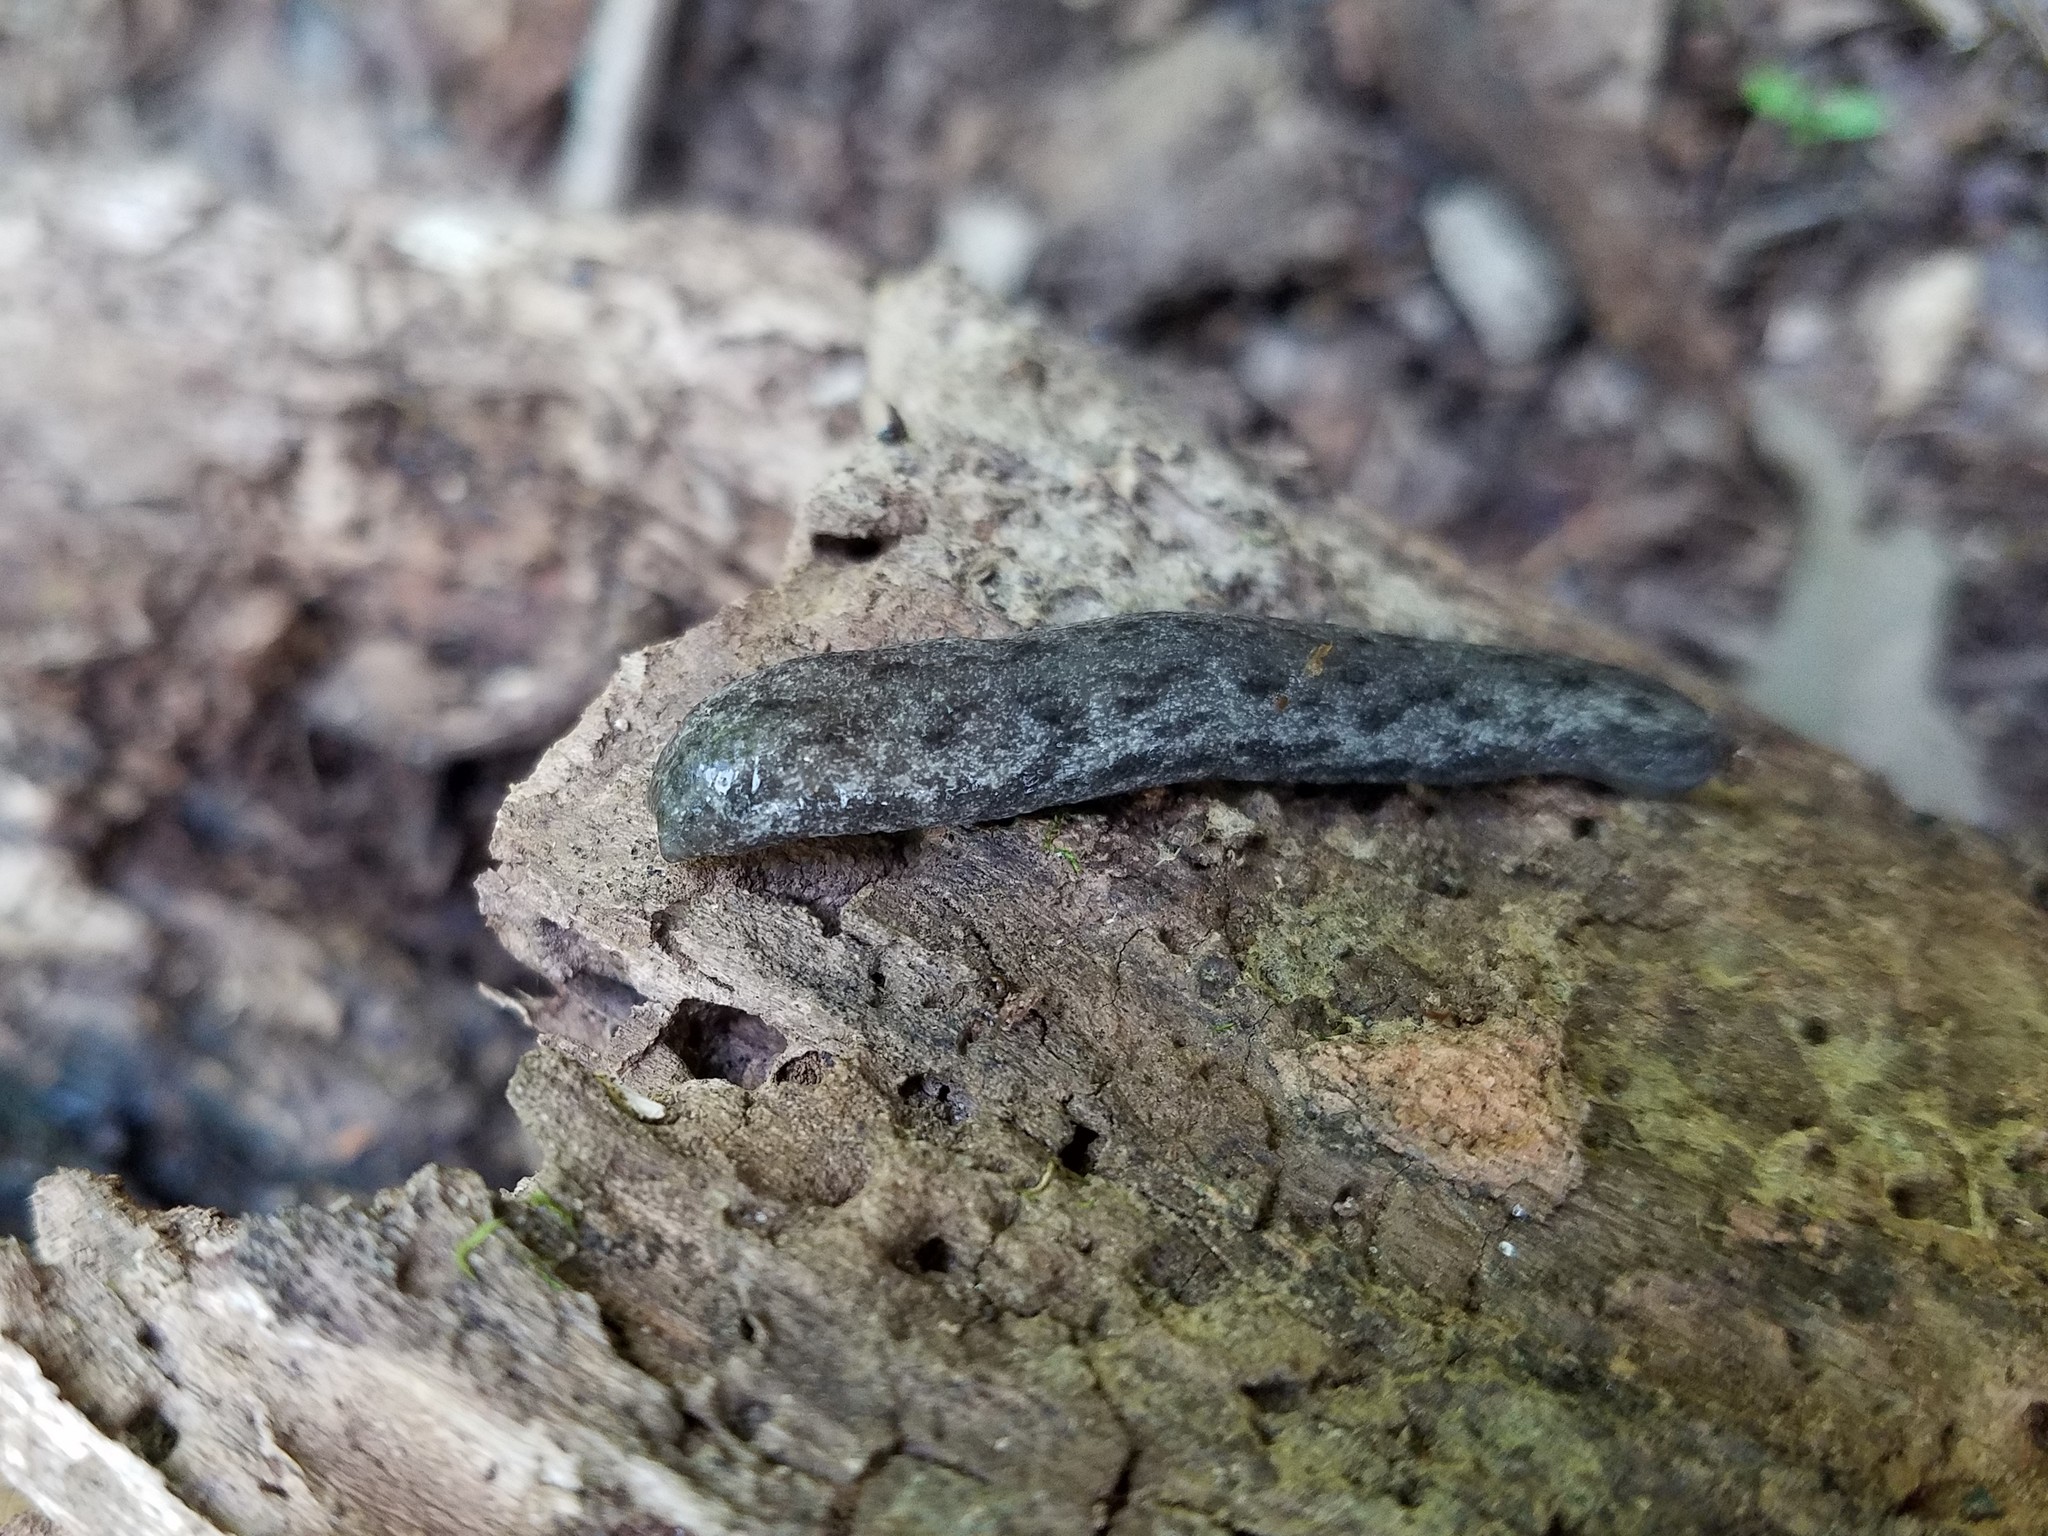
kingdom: Animalia
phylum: Mollusca
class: Gastropoda
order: Stylommatophora
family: Philomycidae
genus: Megapallifera
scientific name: Megapallifera mutabilis
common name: Changeable mantleslug
